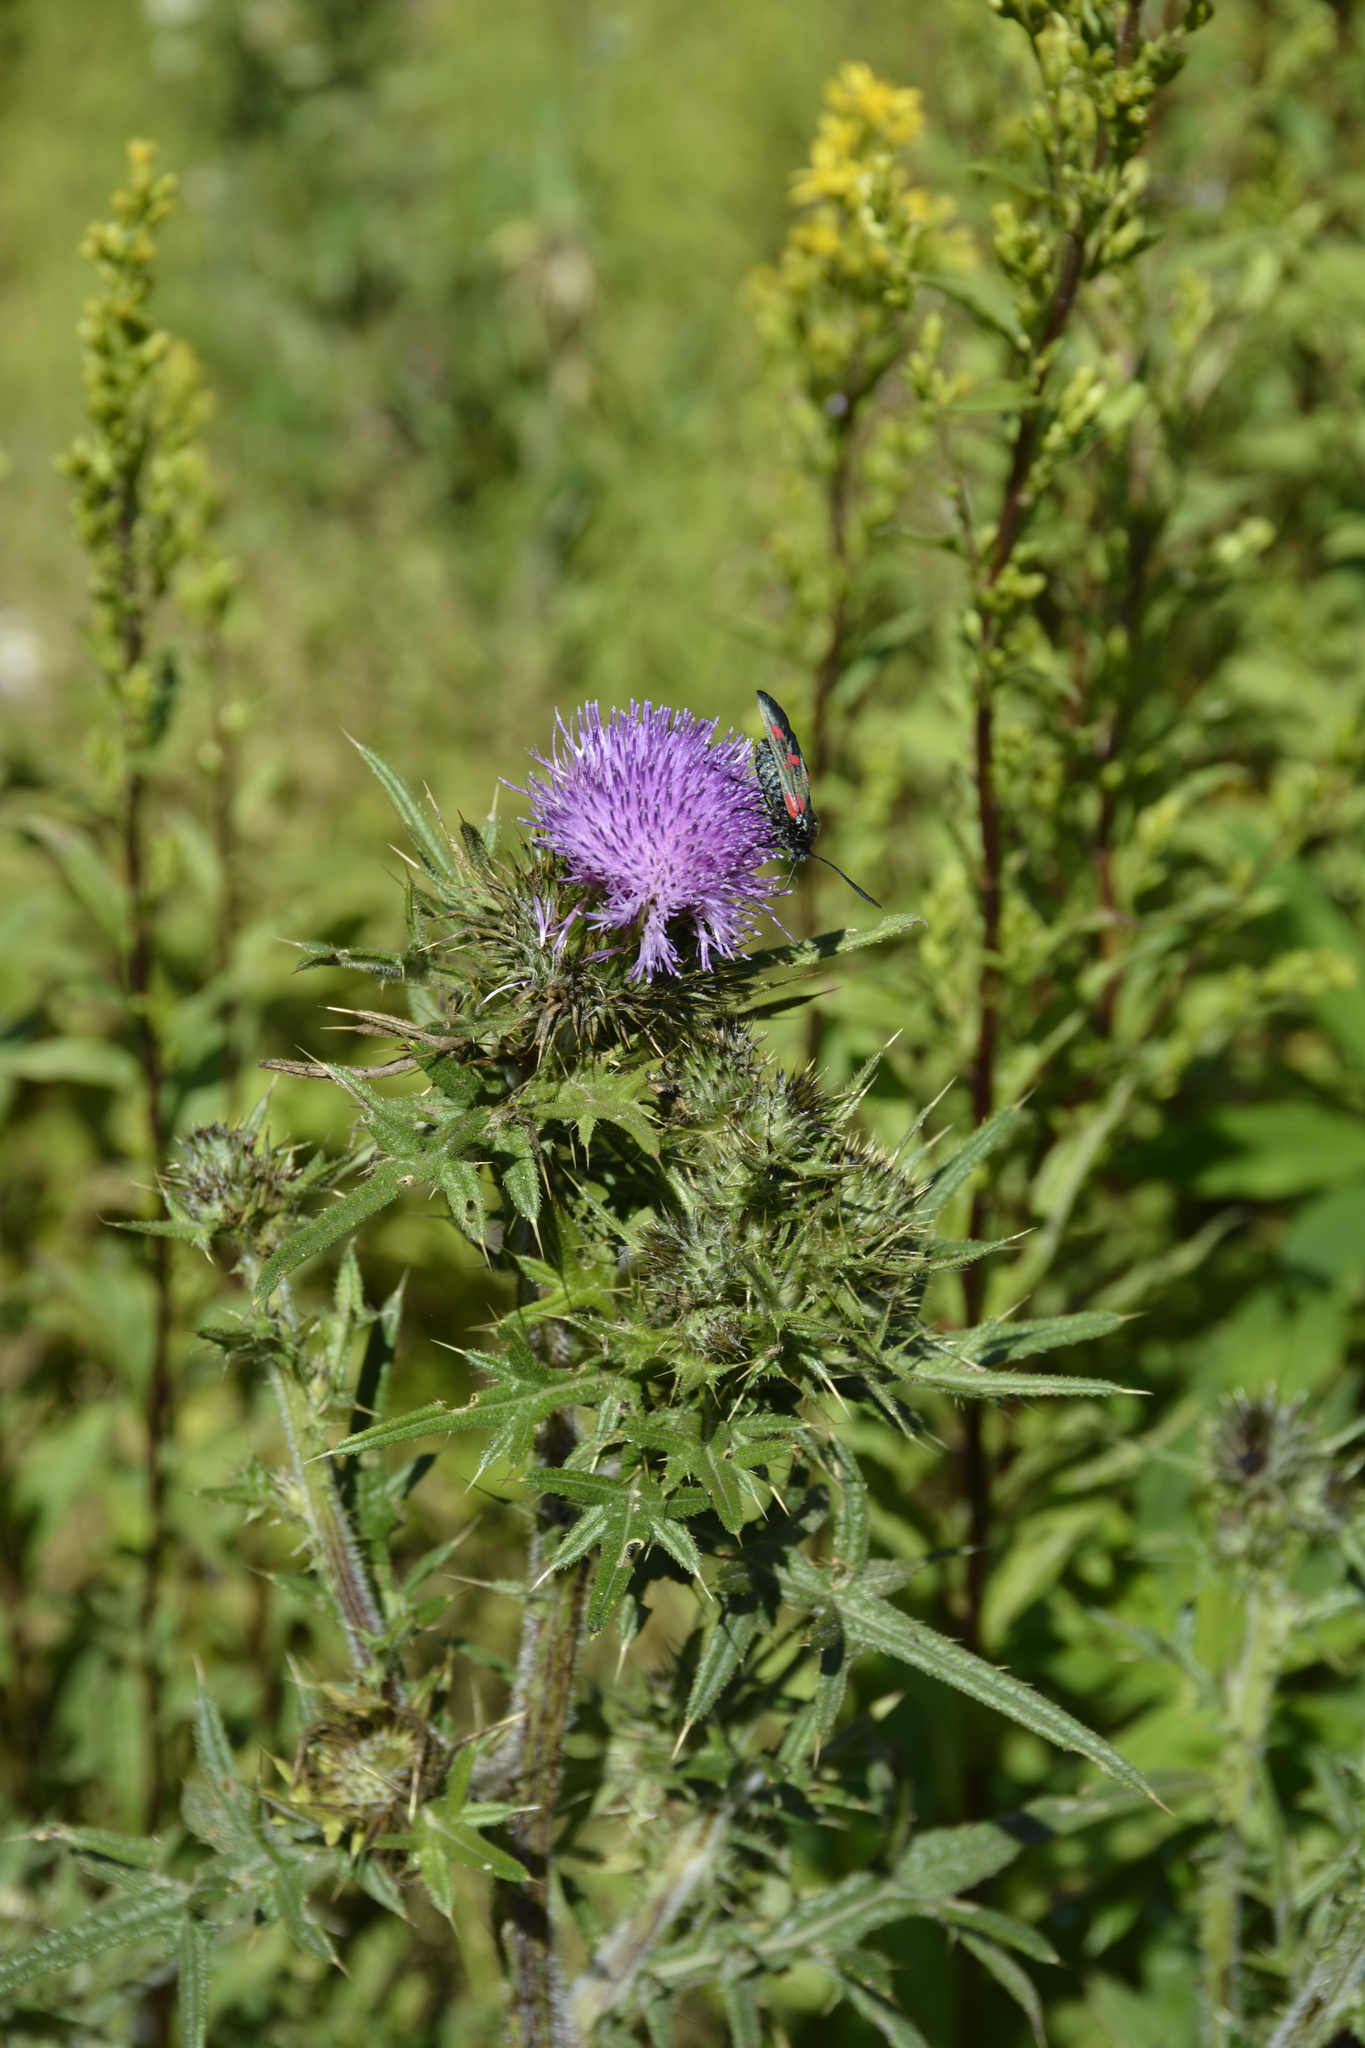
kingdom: Plantae
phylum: Tracheophyta
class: Magnoliopsida
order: Asterales
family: Asteraceae
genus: Cirsium
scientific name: Cirsium vulgare
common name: Bull thistle
